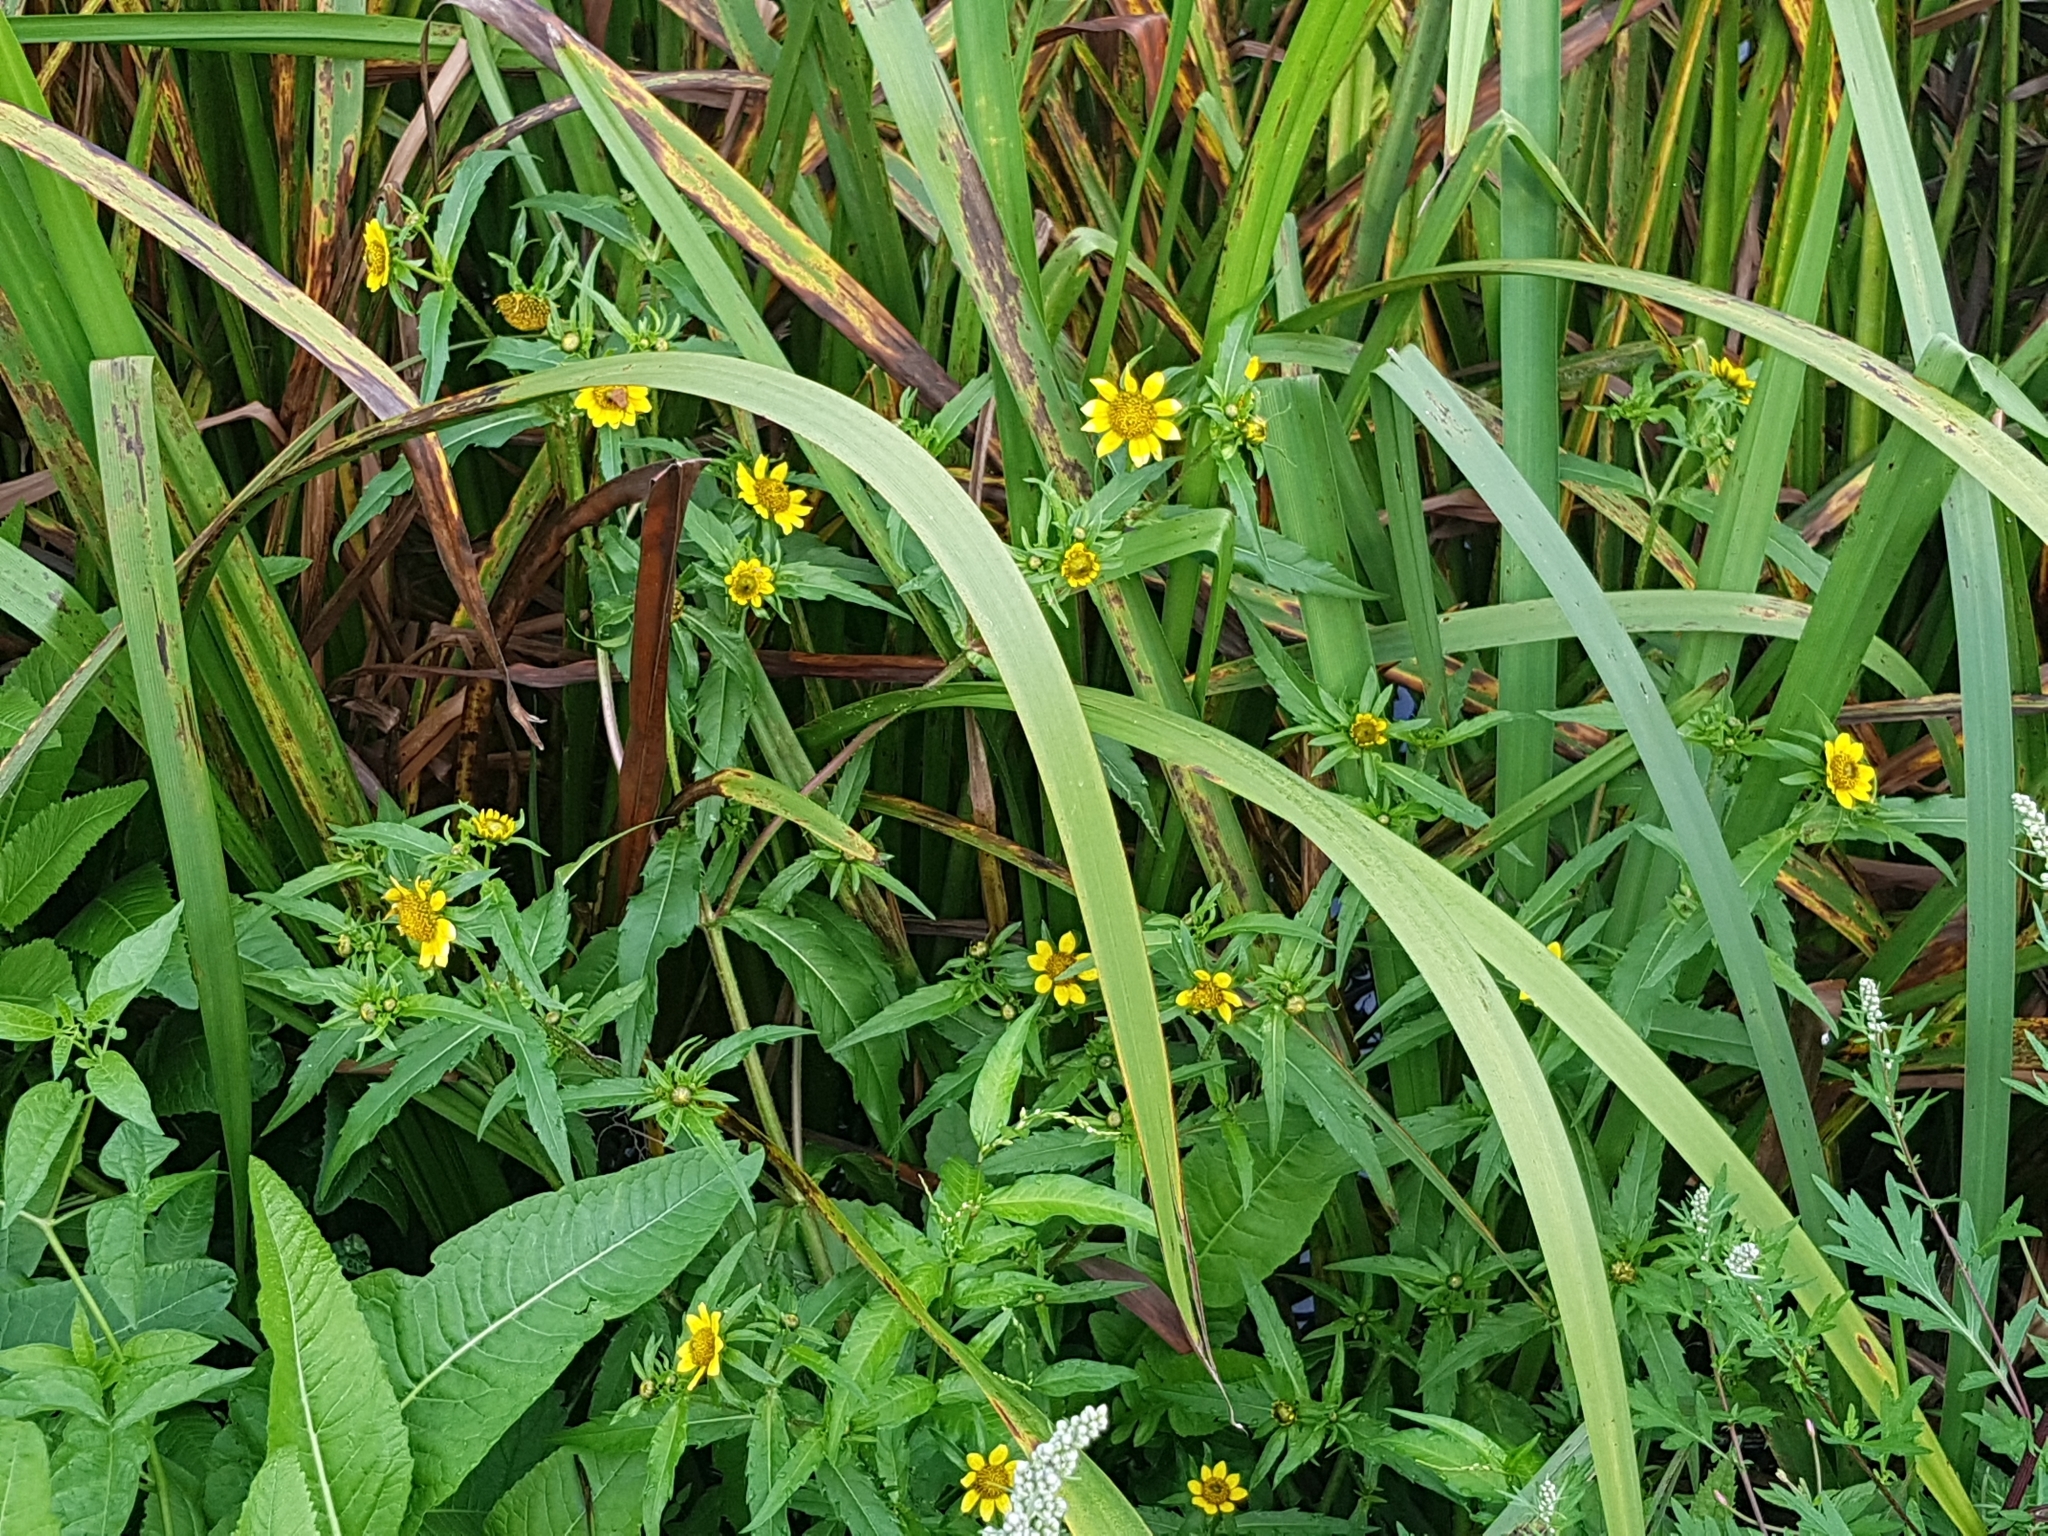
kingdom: Plantae
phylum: Tracheophyta
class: Magnoliopsida
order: Asterales
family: Asteraceae
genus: Bidens
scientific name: Bidens cernua
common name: Nodding bur-marigold
